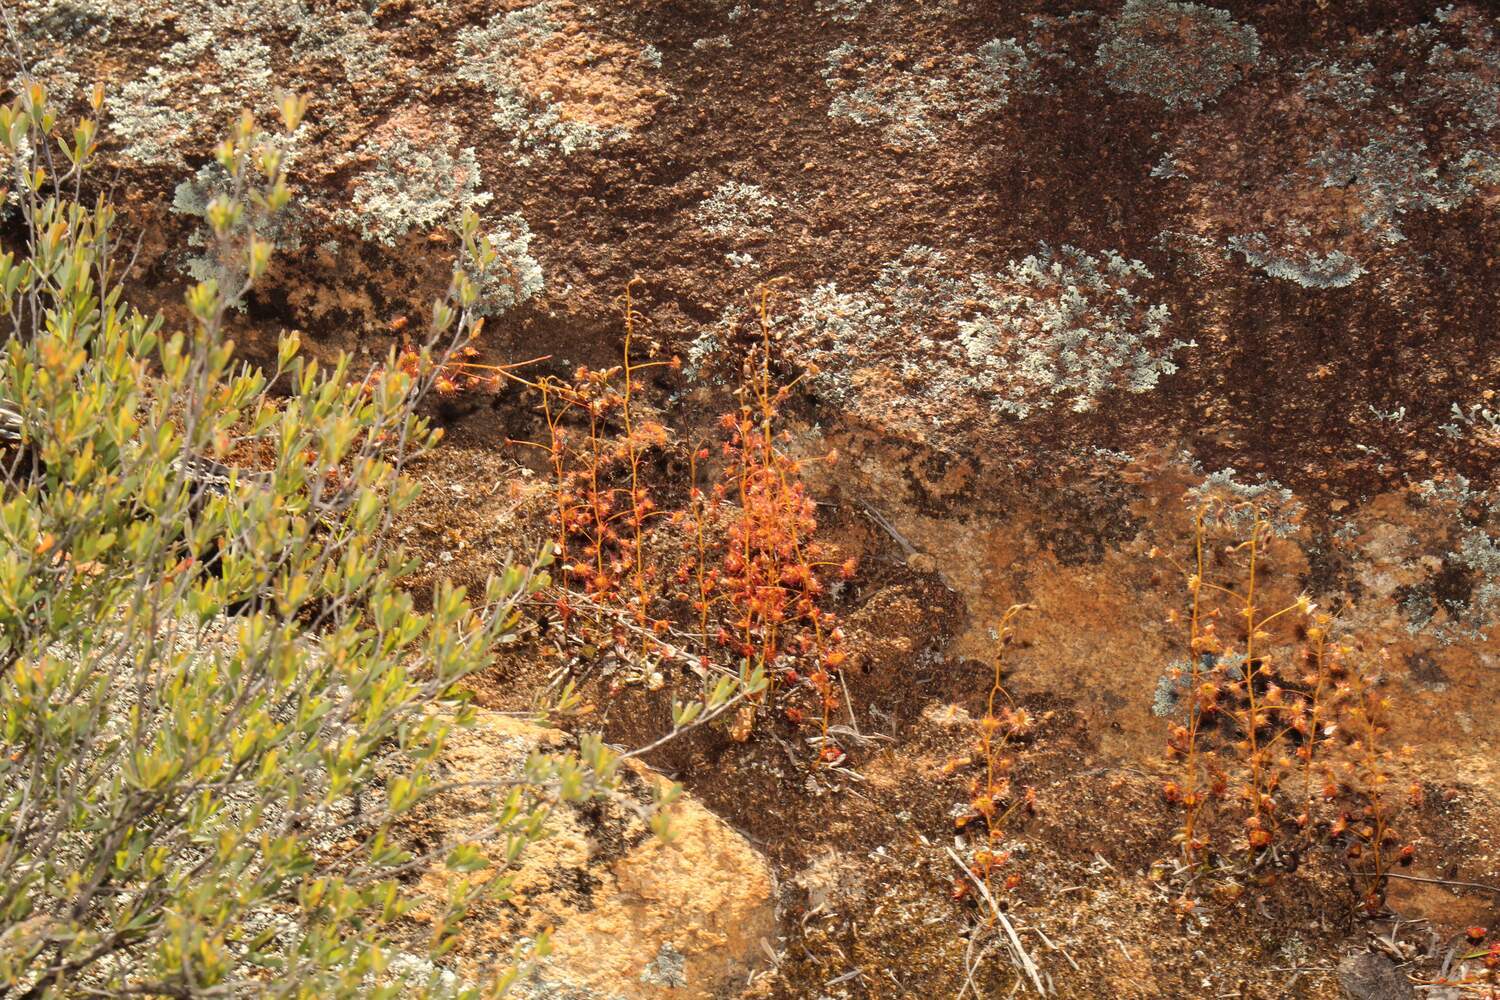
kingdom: Plantae
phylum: Tracheophyta
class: Magnoliopsida
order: Caryophyllales
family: Droseraceae
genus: Drosera
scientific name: Drosera andersoniana
